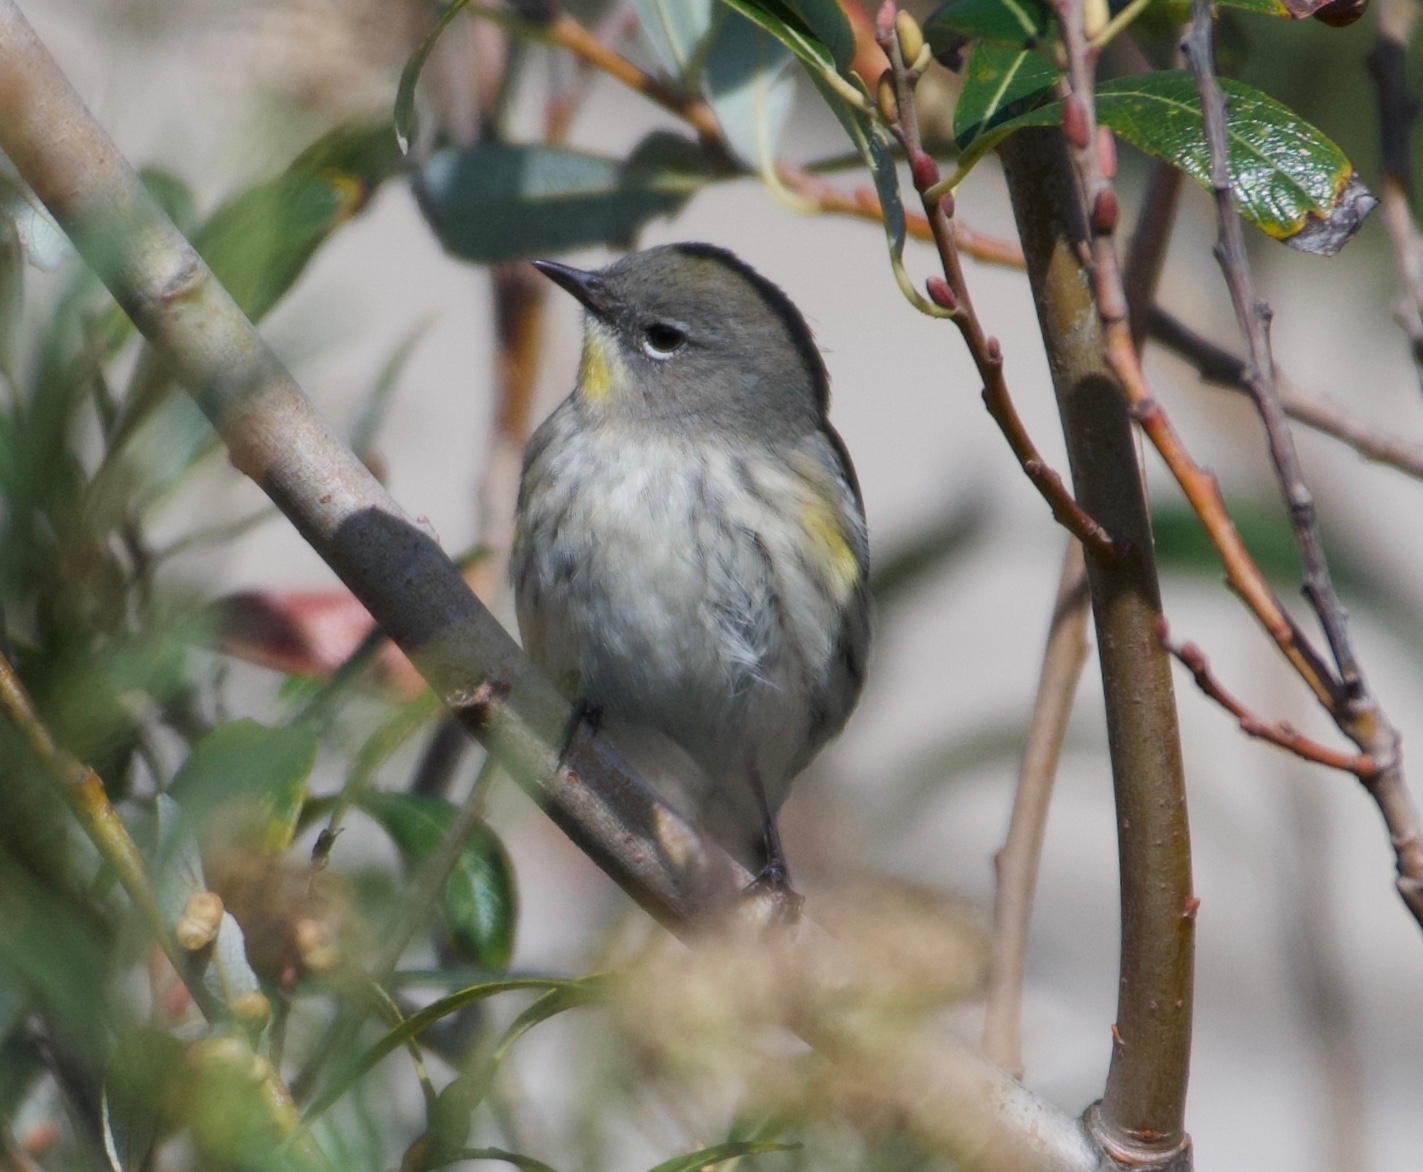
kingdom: Animalia
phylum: Chordata
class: Aves
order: Passeriformes
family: Parulidae
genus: Setophaga
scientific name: Setophaga coronata
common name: Myrtle warbler
